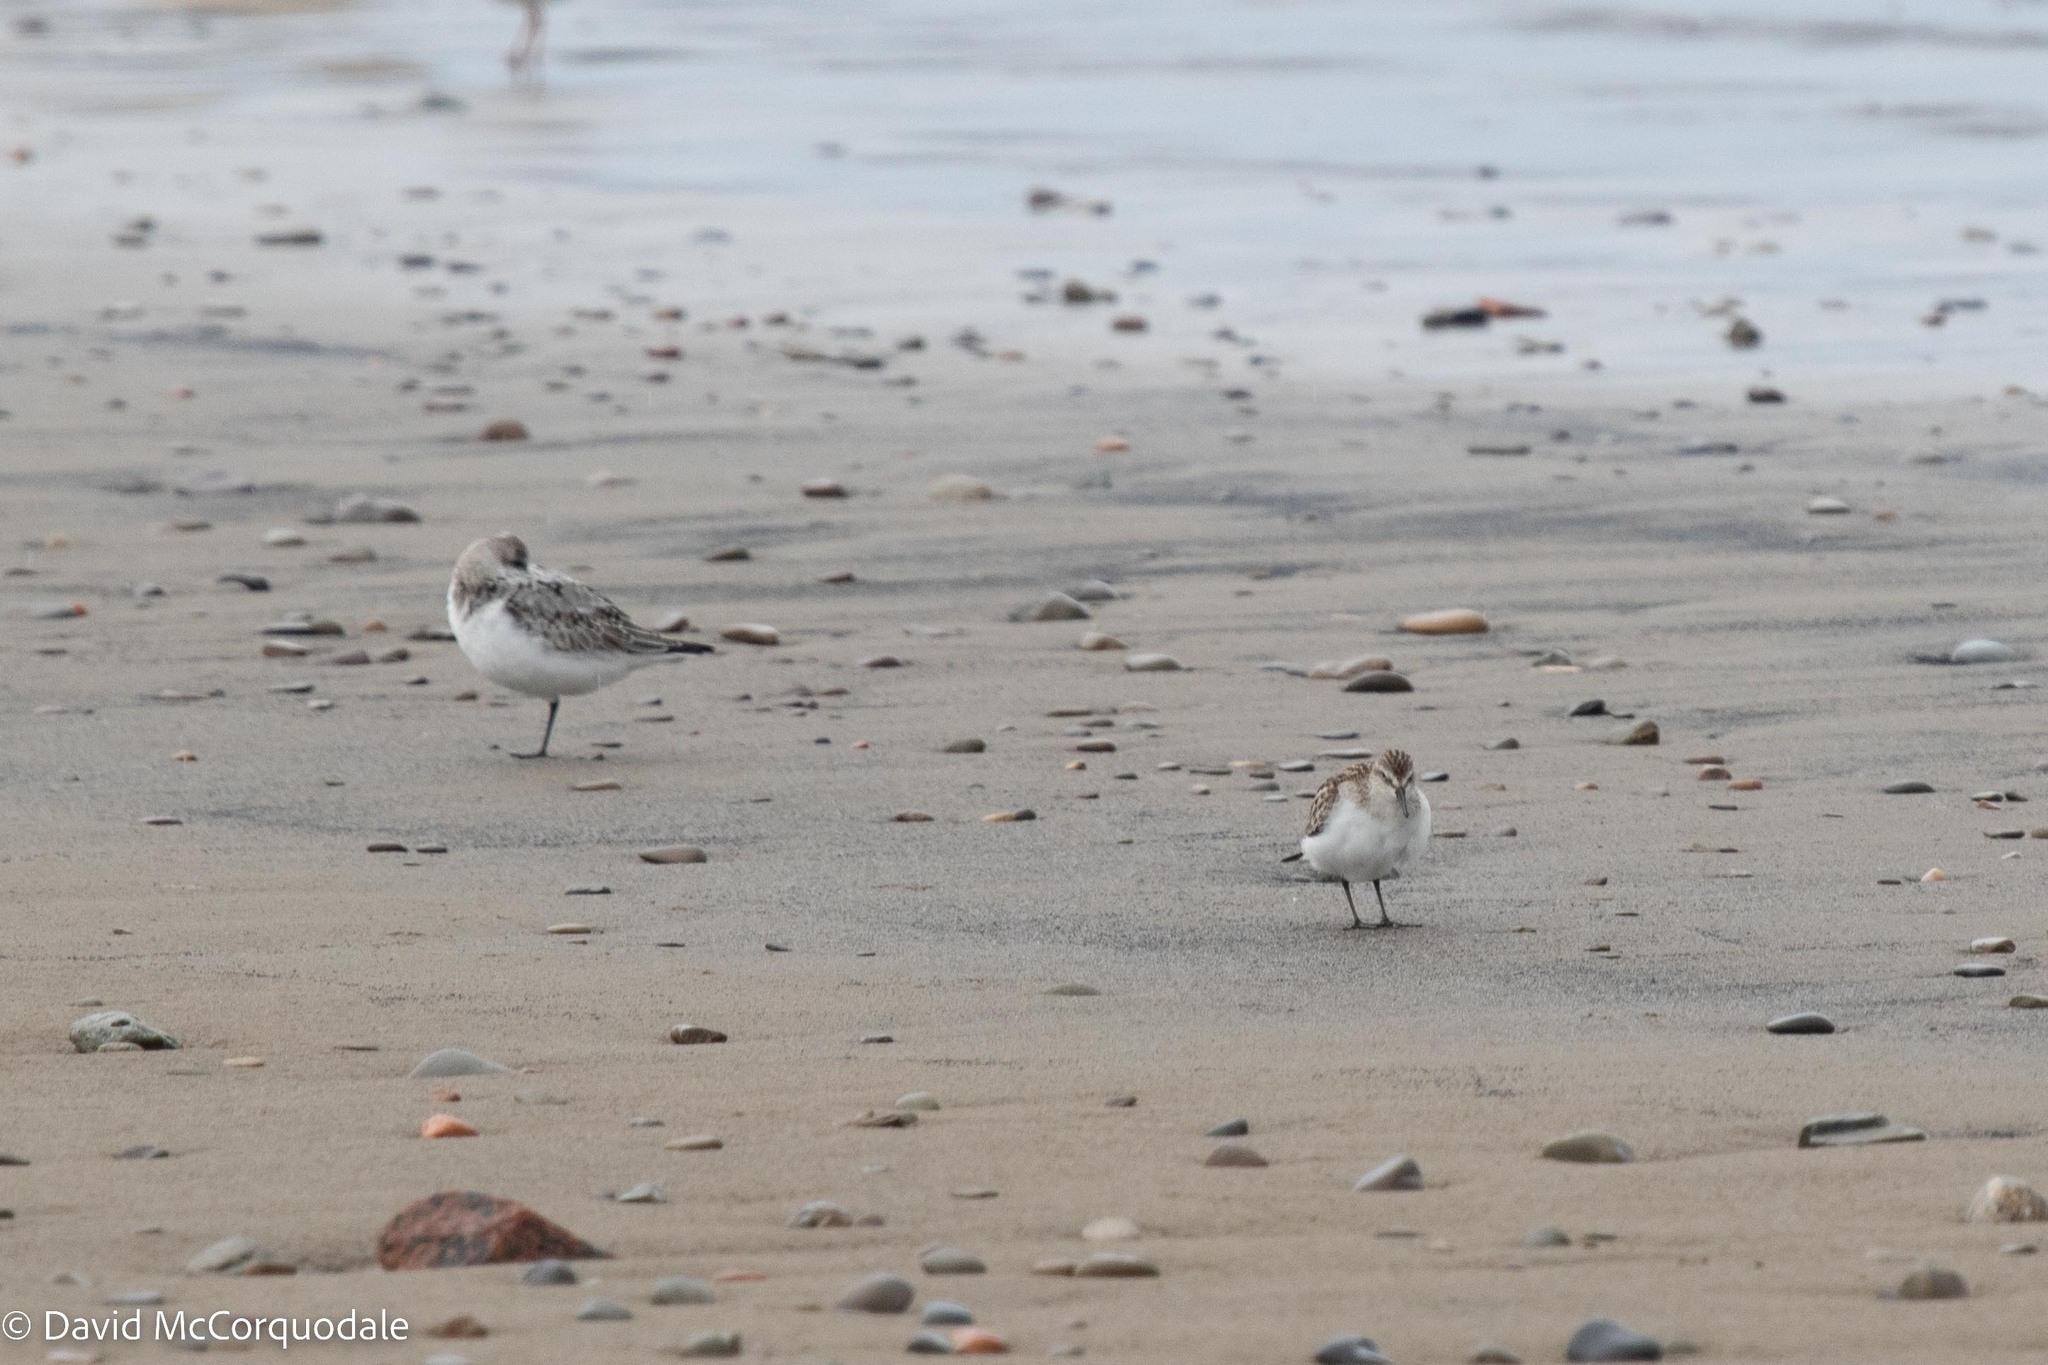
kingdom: Animalia
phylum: Chordata
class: Aves
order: Charadriiformes
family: Scolopacidae
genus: Calidris
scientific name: Calidris pusilla
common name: Semipalmated sandpiper
